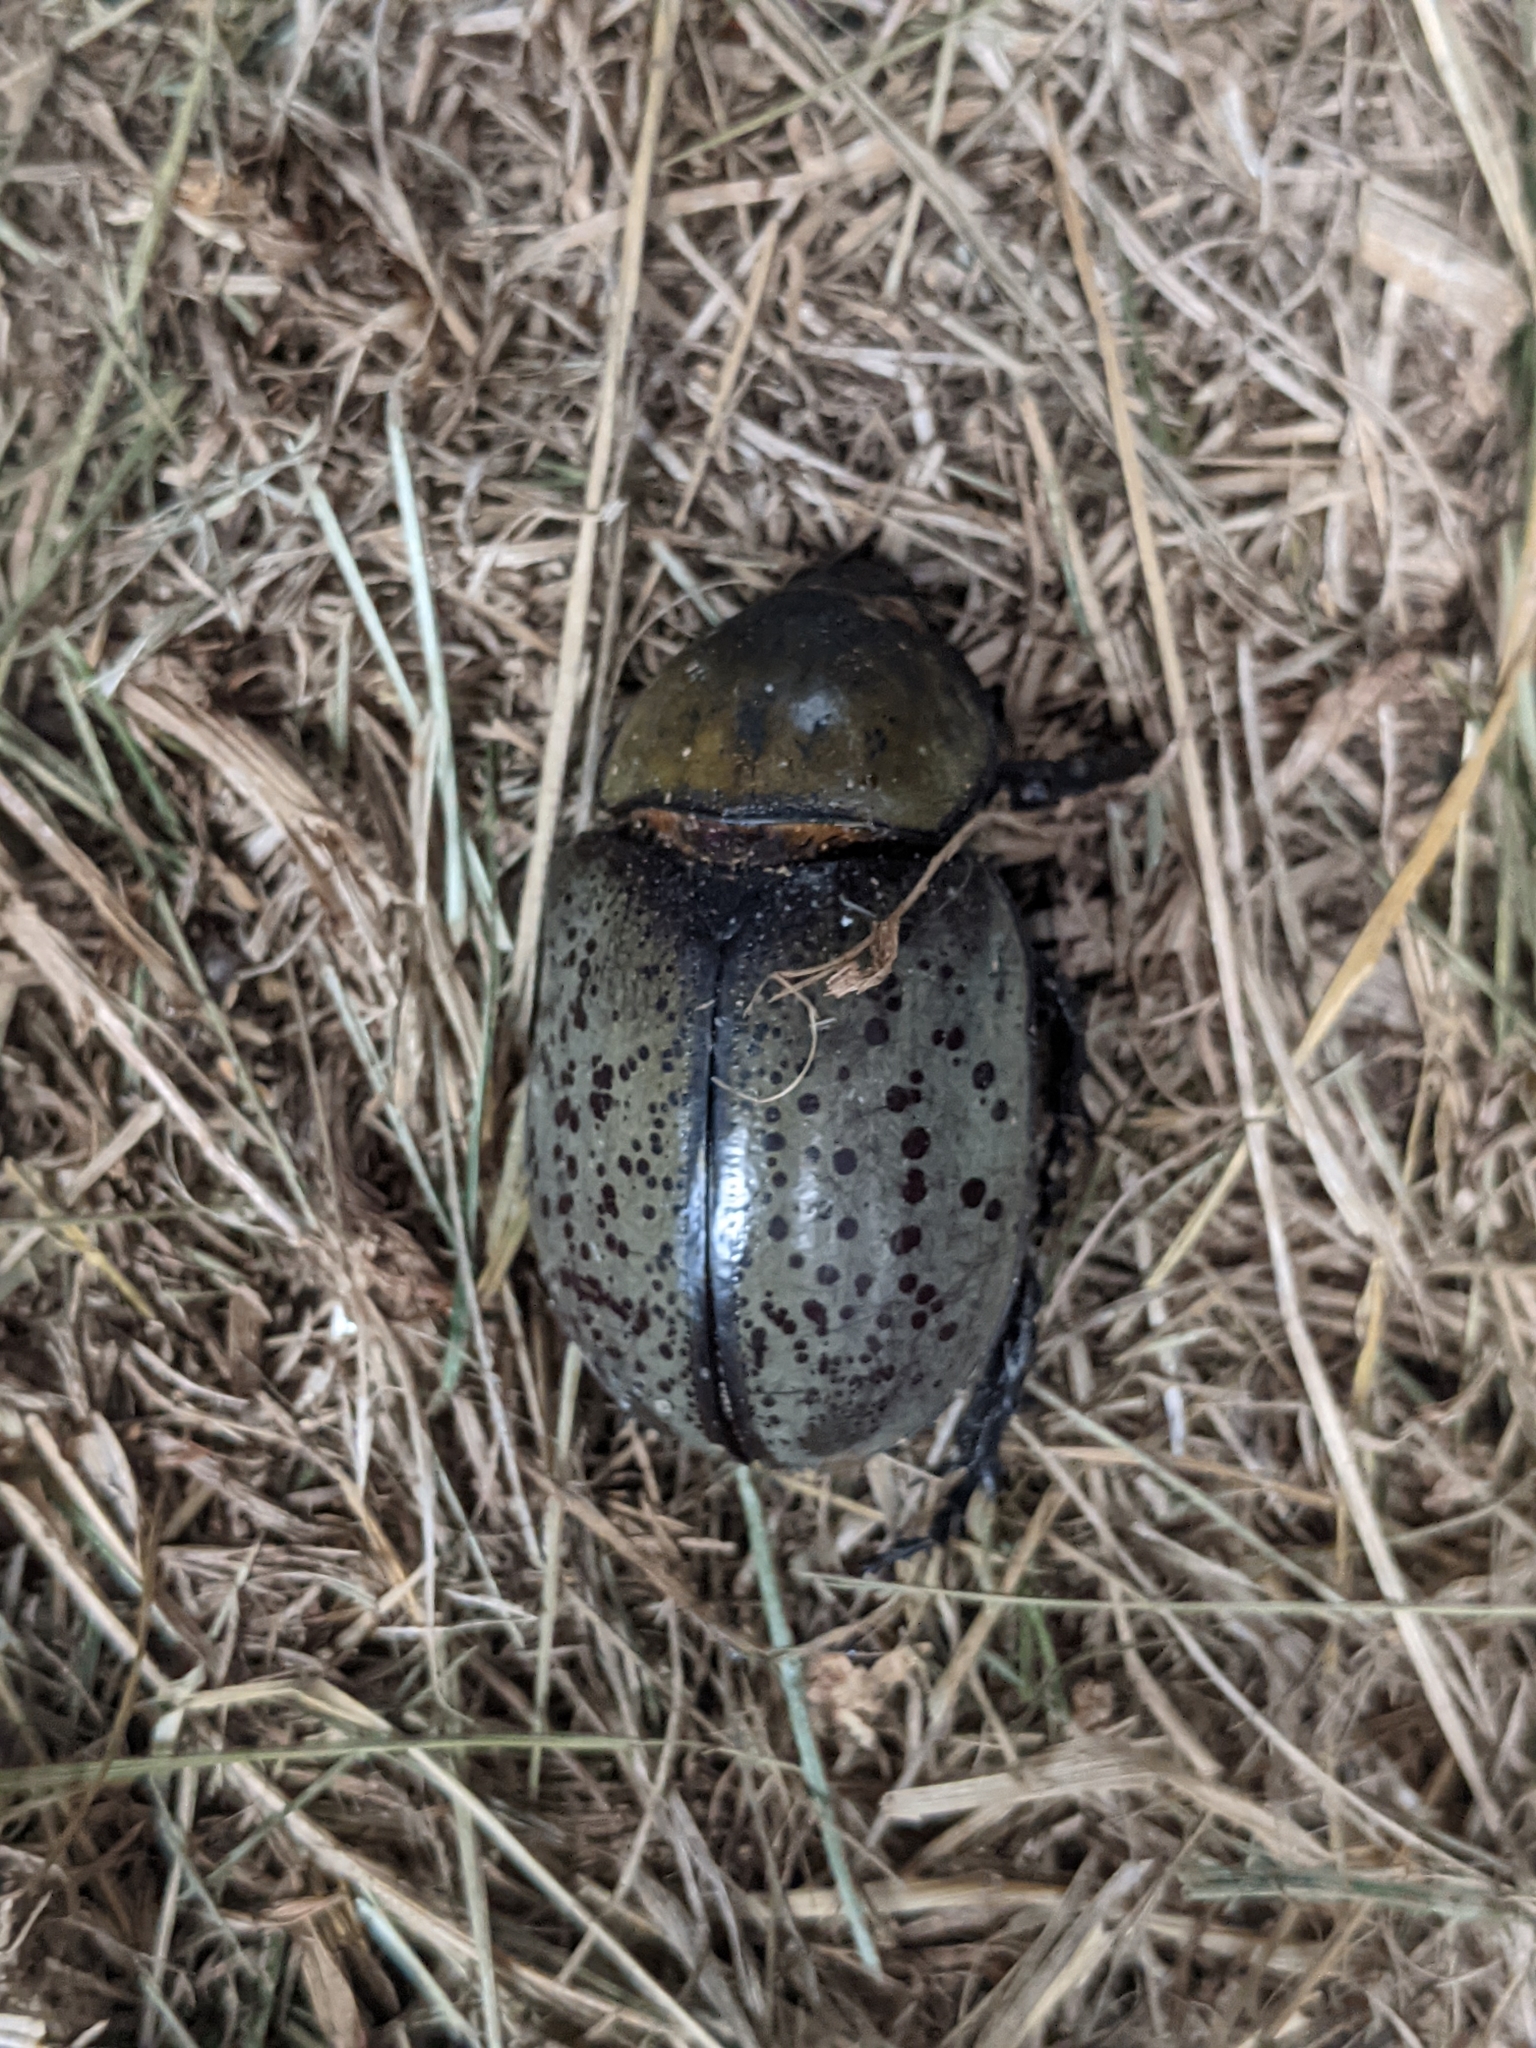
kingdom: Animalia
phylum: Arthropoda
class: Insecta
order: Coleoptera
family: Scarabaeidae
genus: Dynastes
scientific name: Dynastes tityus
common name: Eastern hercules beetle
